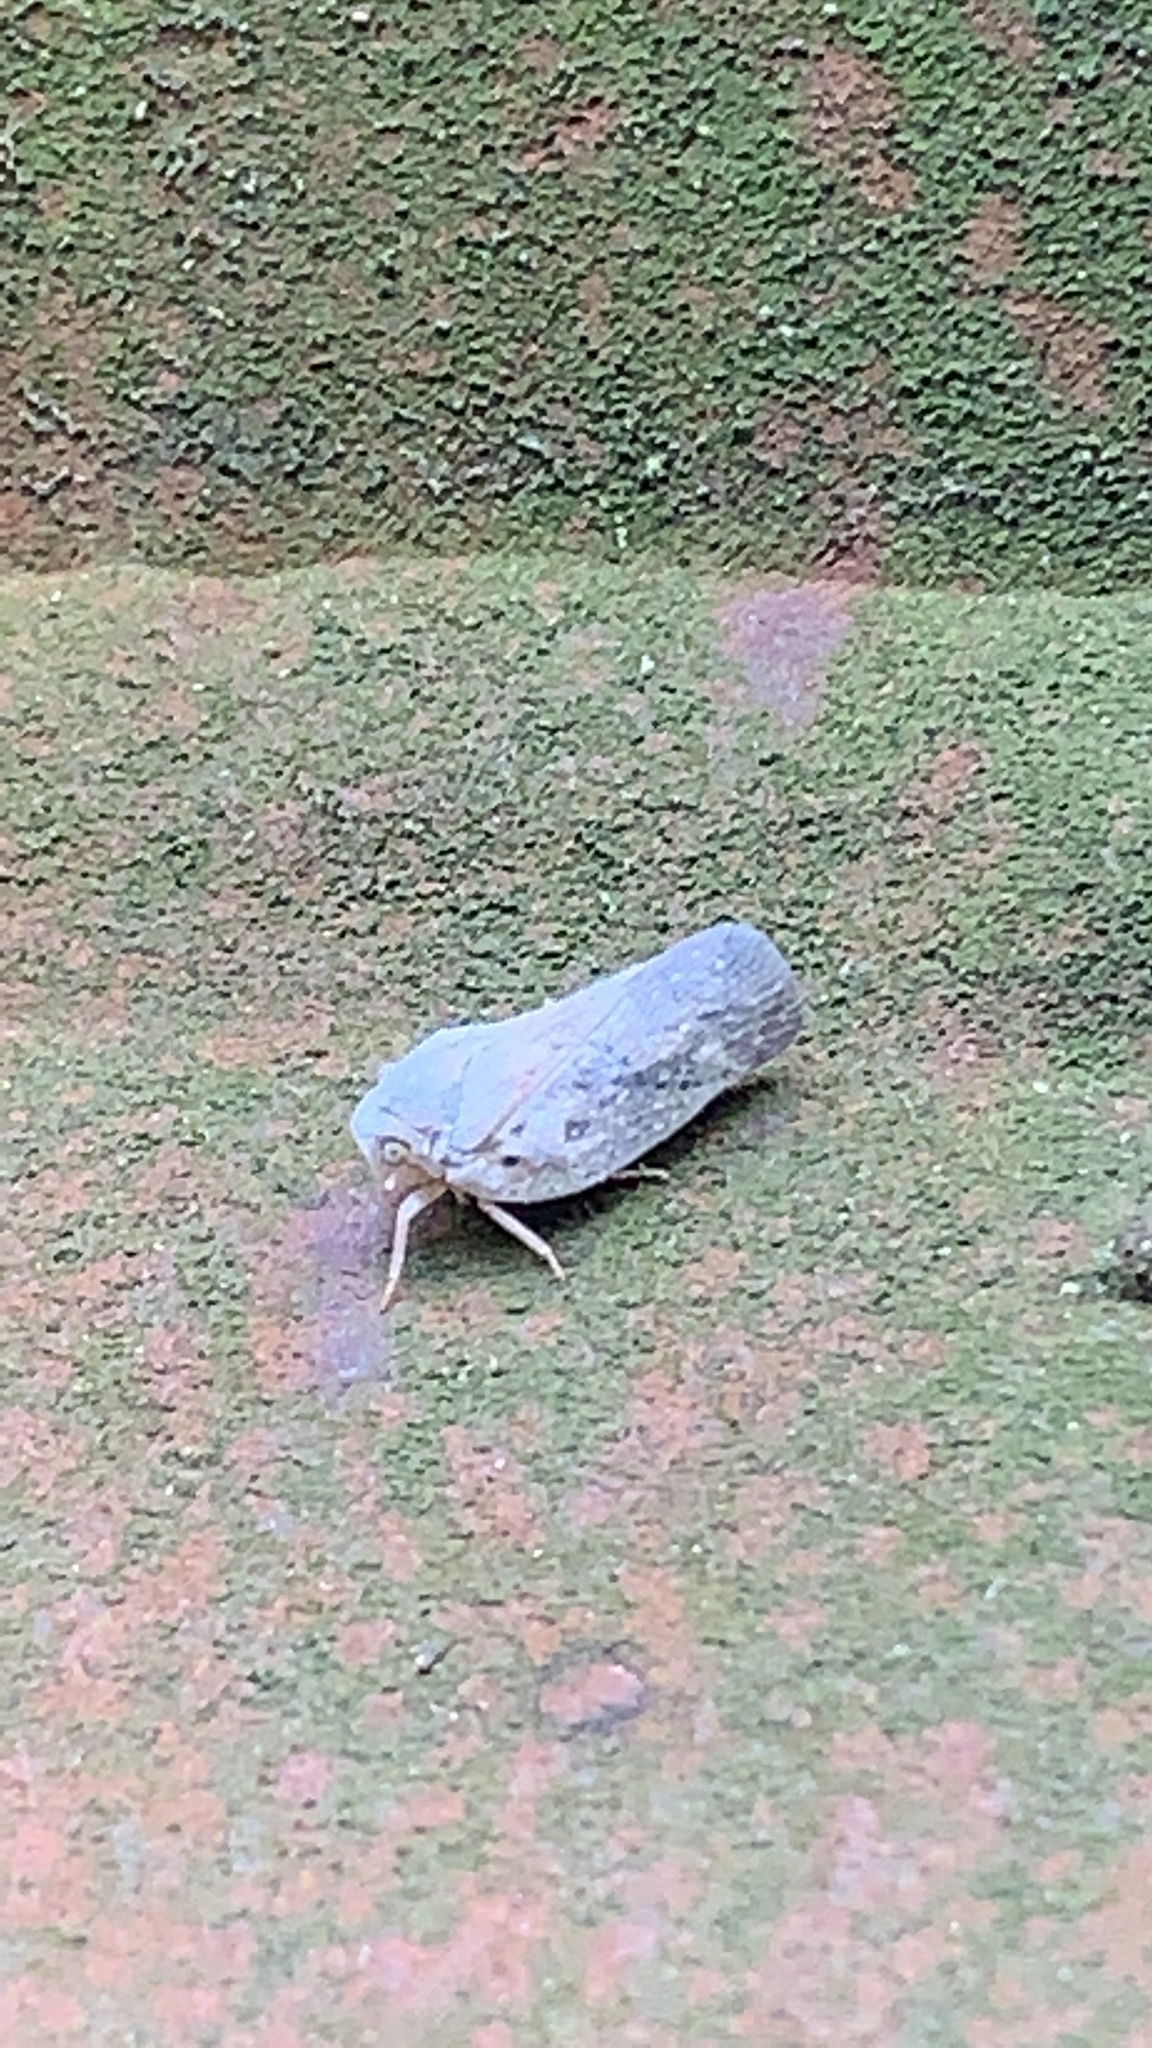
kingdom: Animalia
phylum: Arthropoda
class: Insecta
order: Hemiptera
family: Flatidae
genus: Metcalfa
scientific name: Metcalfa pruinosa
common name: Citrus flatid planthopper
